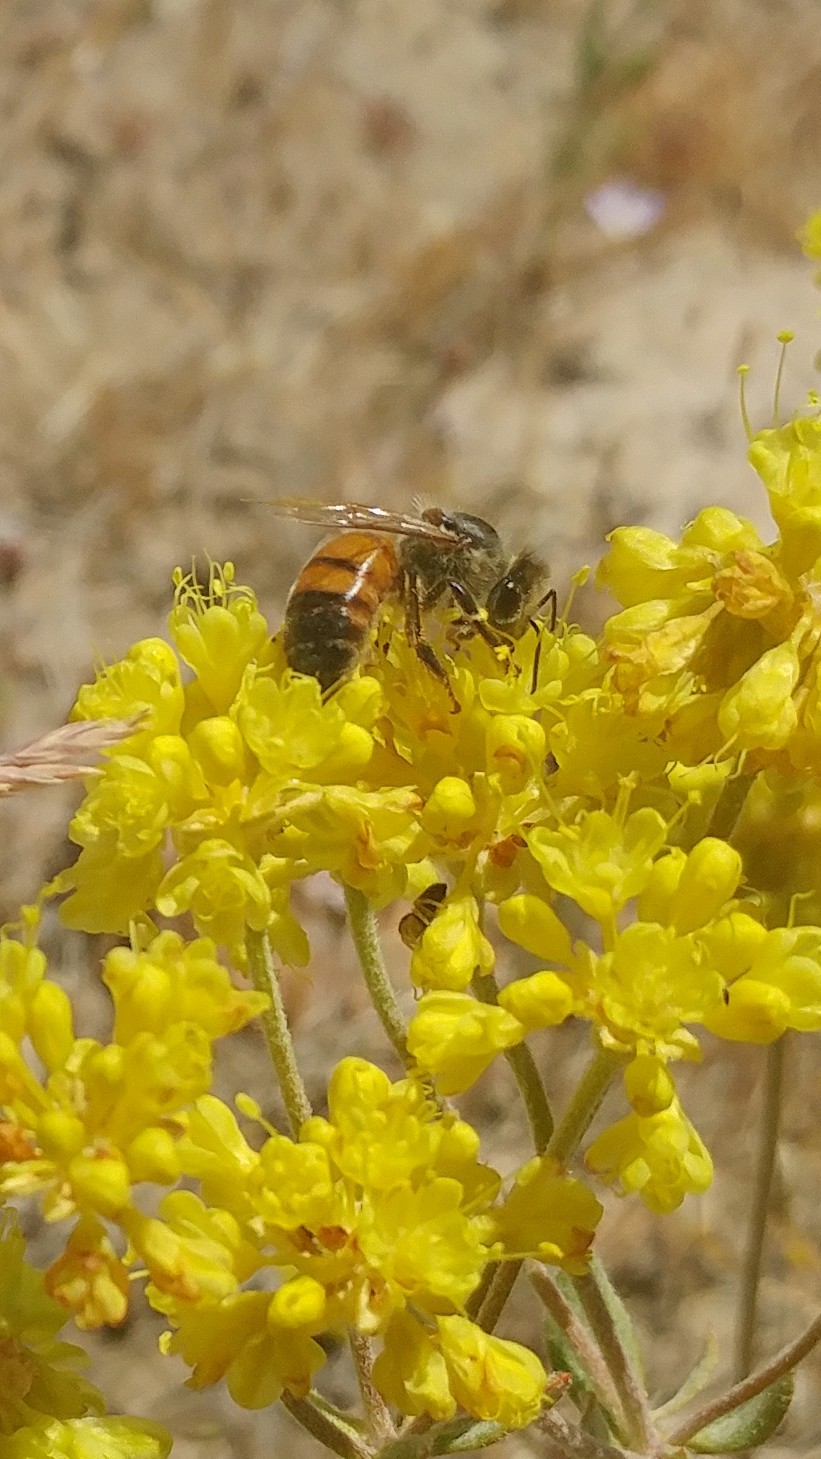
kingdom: Animalia
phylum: Arthropoda
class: Insecta
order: Hymenoptera
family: Apidae
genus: Apis
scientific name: Apis mellifera
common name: Honey bee
